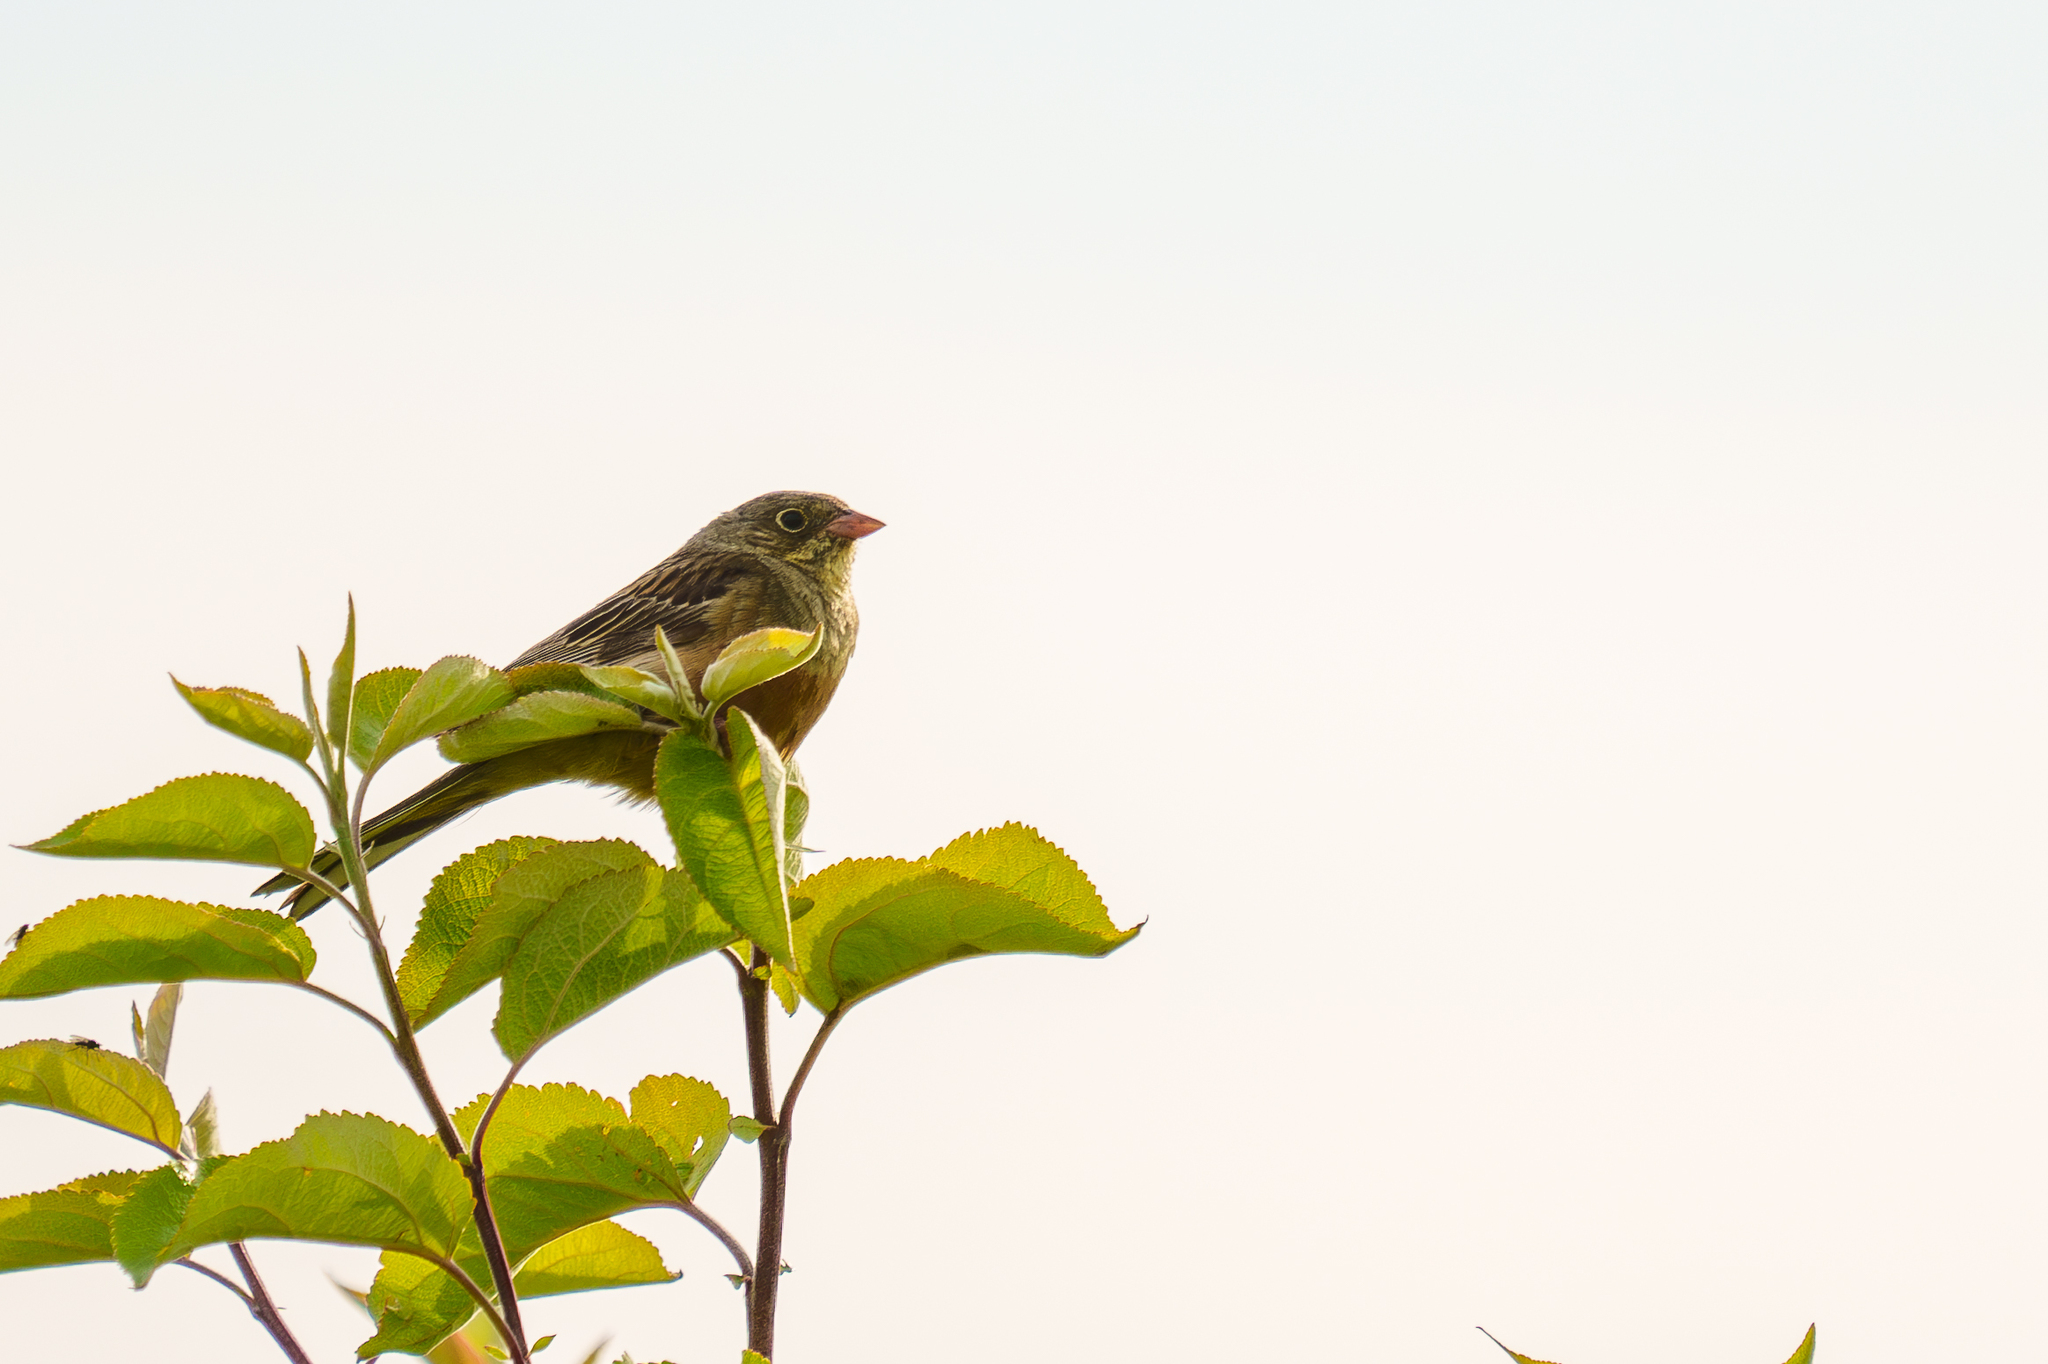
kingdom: Animalia
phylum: Chordata
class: Aves
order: Passeriformes
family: Emberizidae
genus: Emberiza
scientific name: Emberiza hortulana
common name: Ortolan bunting
